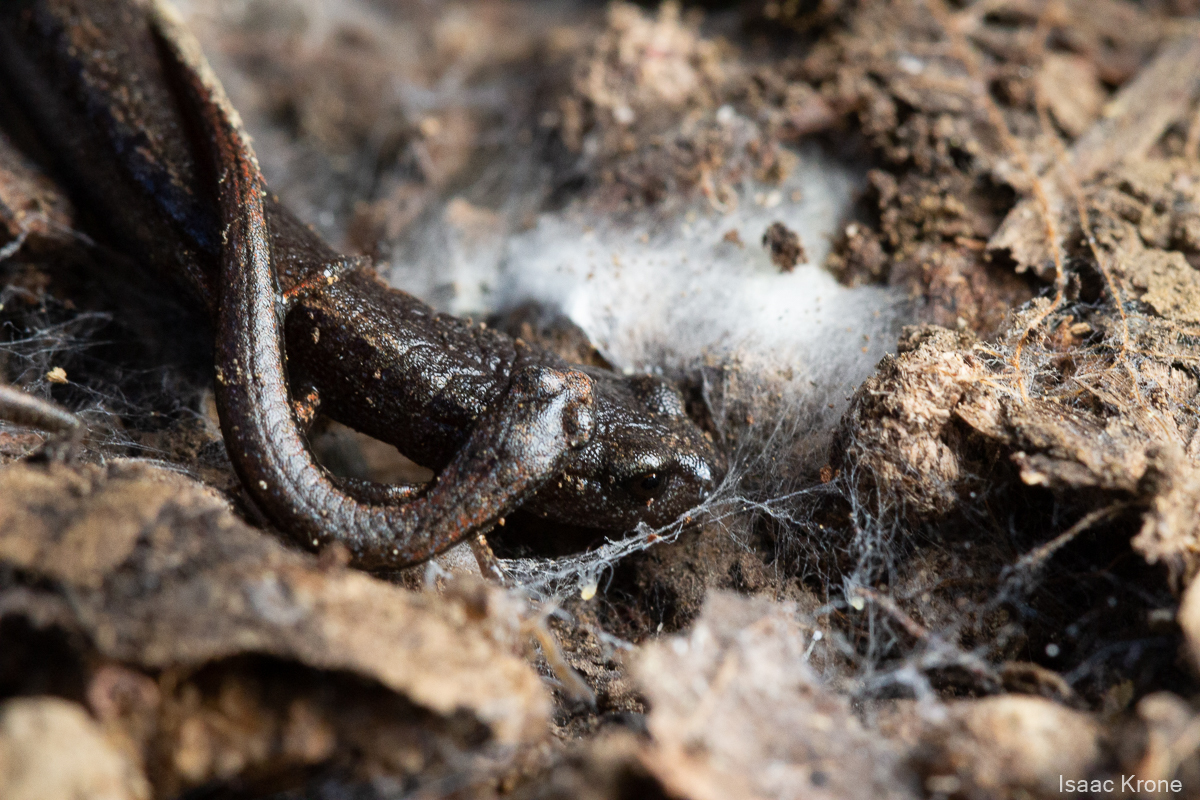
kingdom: Animalia
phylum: Chordata
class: Amphibia
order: Caudata
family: Plethodontidae
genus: Batrachoseps
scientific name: Batrachoseps attenuatus
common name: California slender salamander
